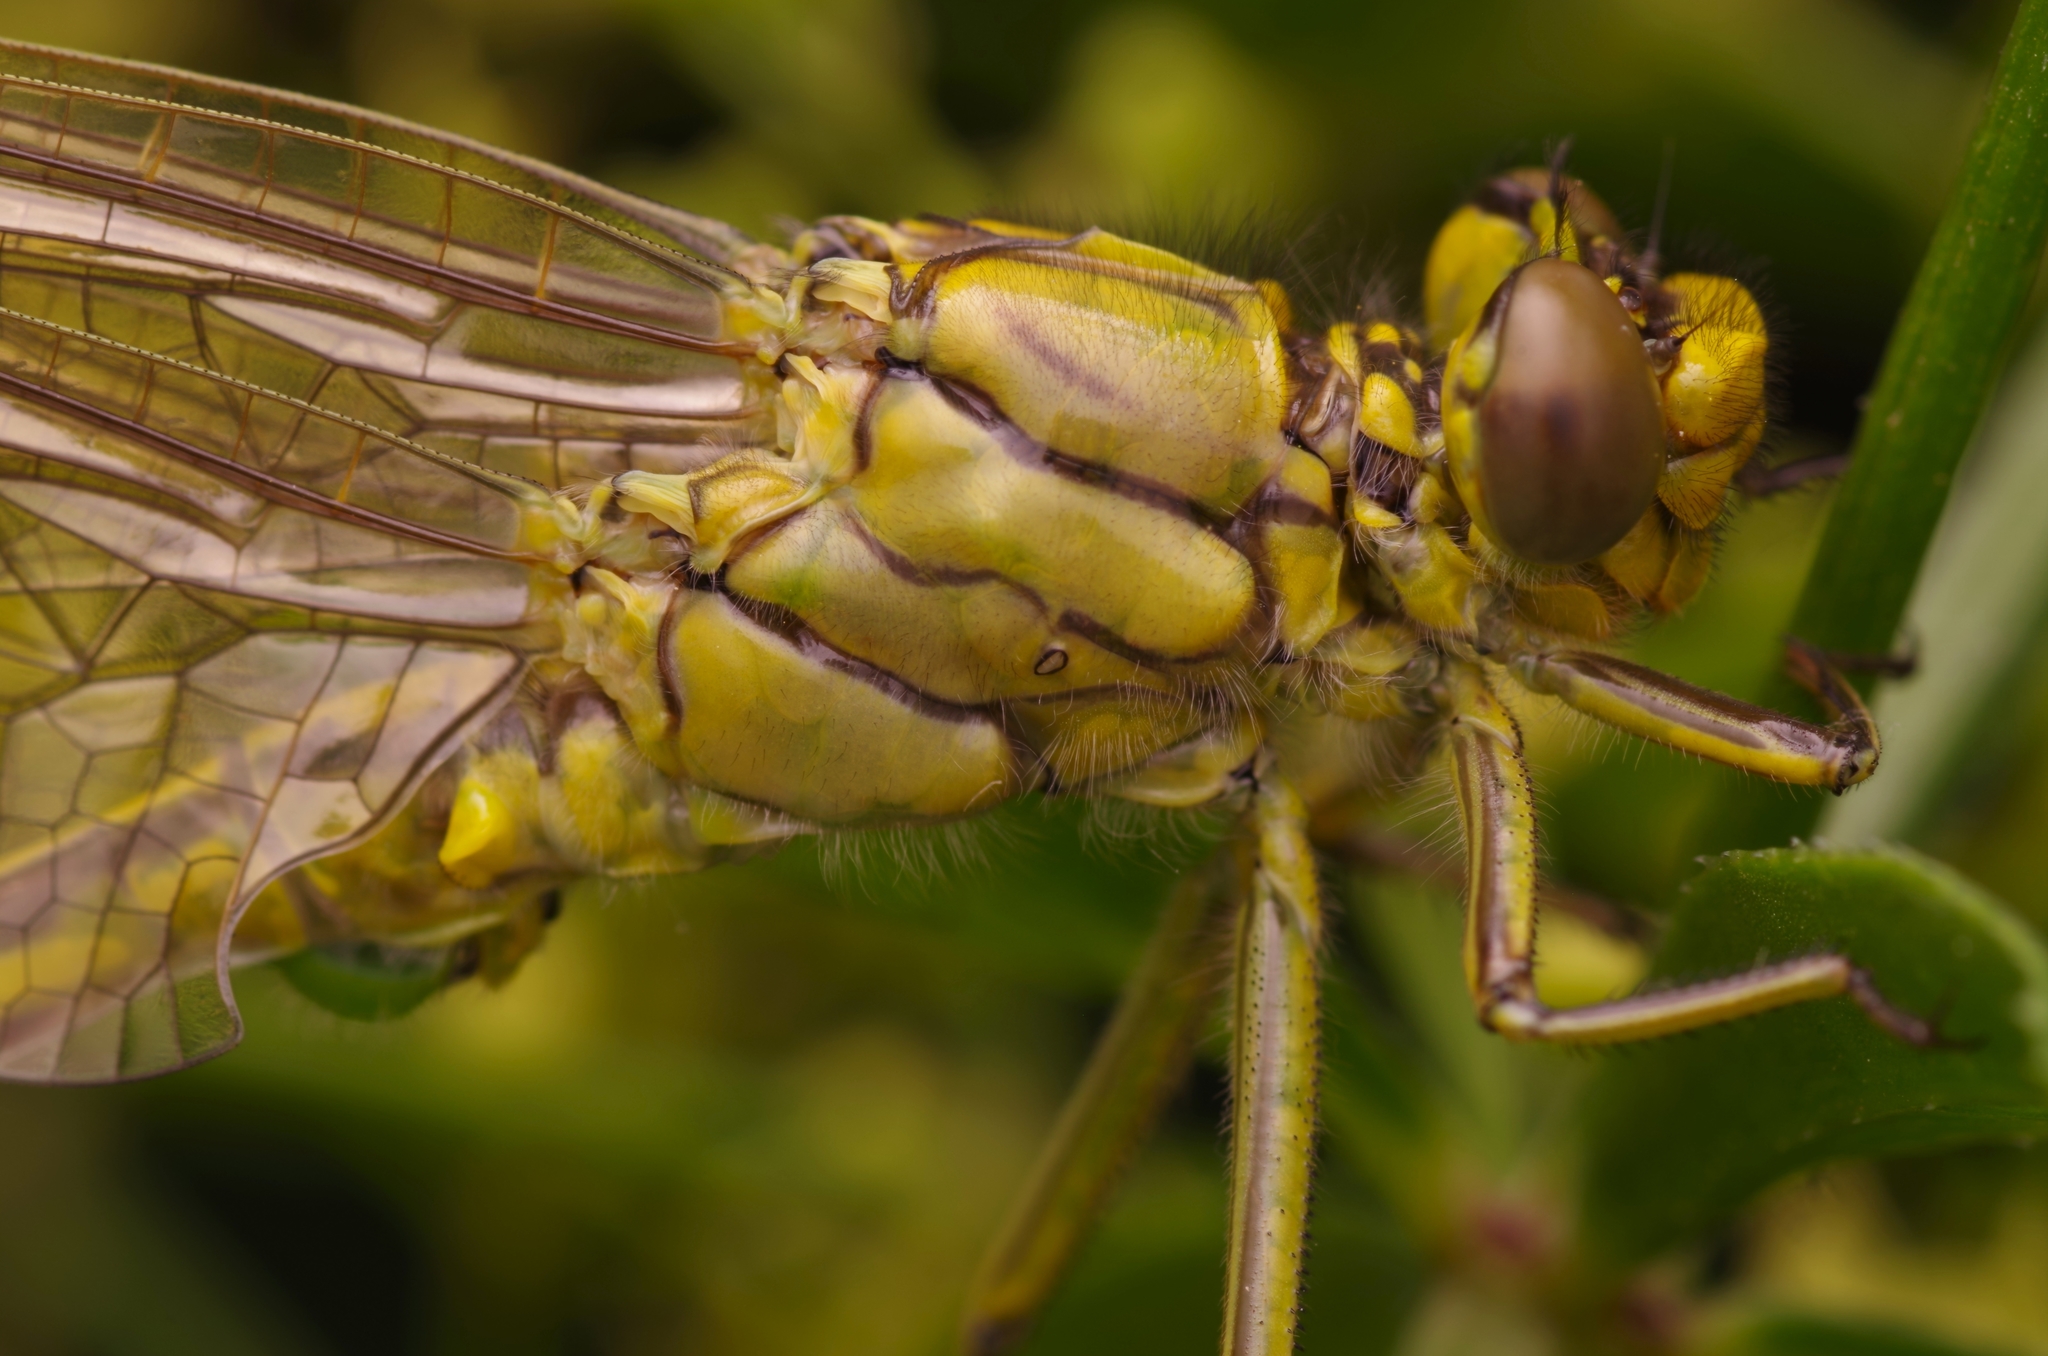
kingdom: Animalia
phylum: Arthropoda
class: Insecta
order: Odonata
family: Gomphidae
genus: Gomphus
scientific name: Gomphus pulchellus
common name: Western clubtail
